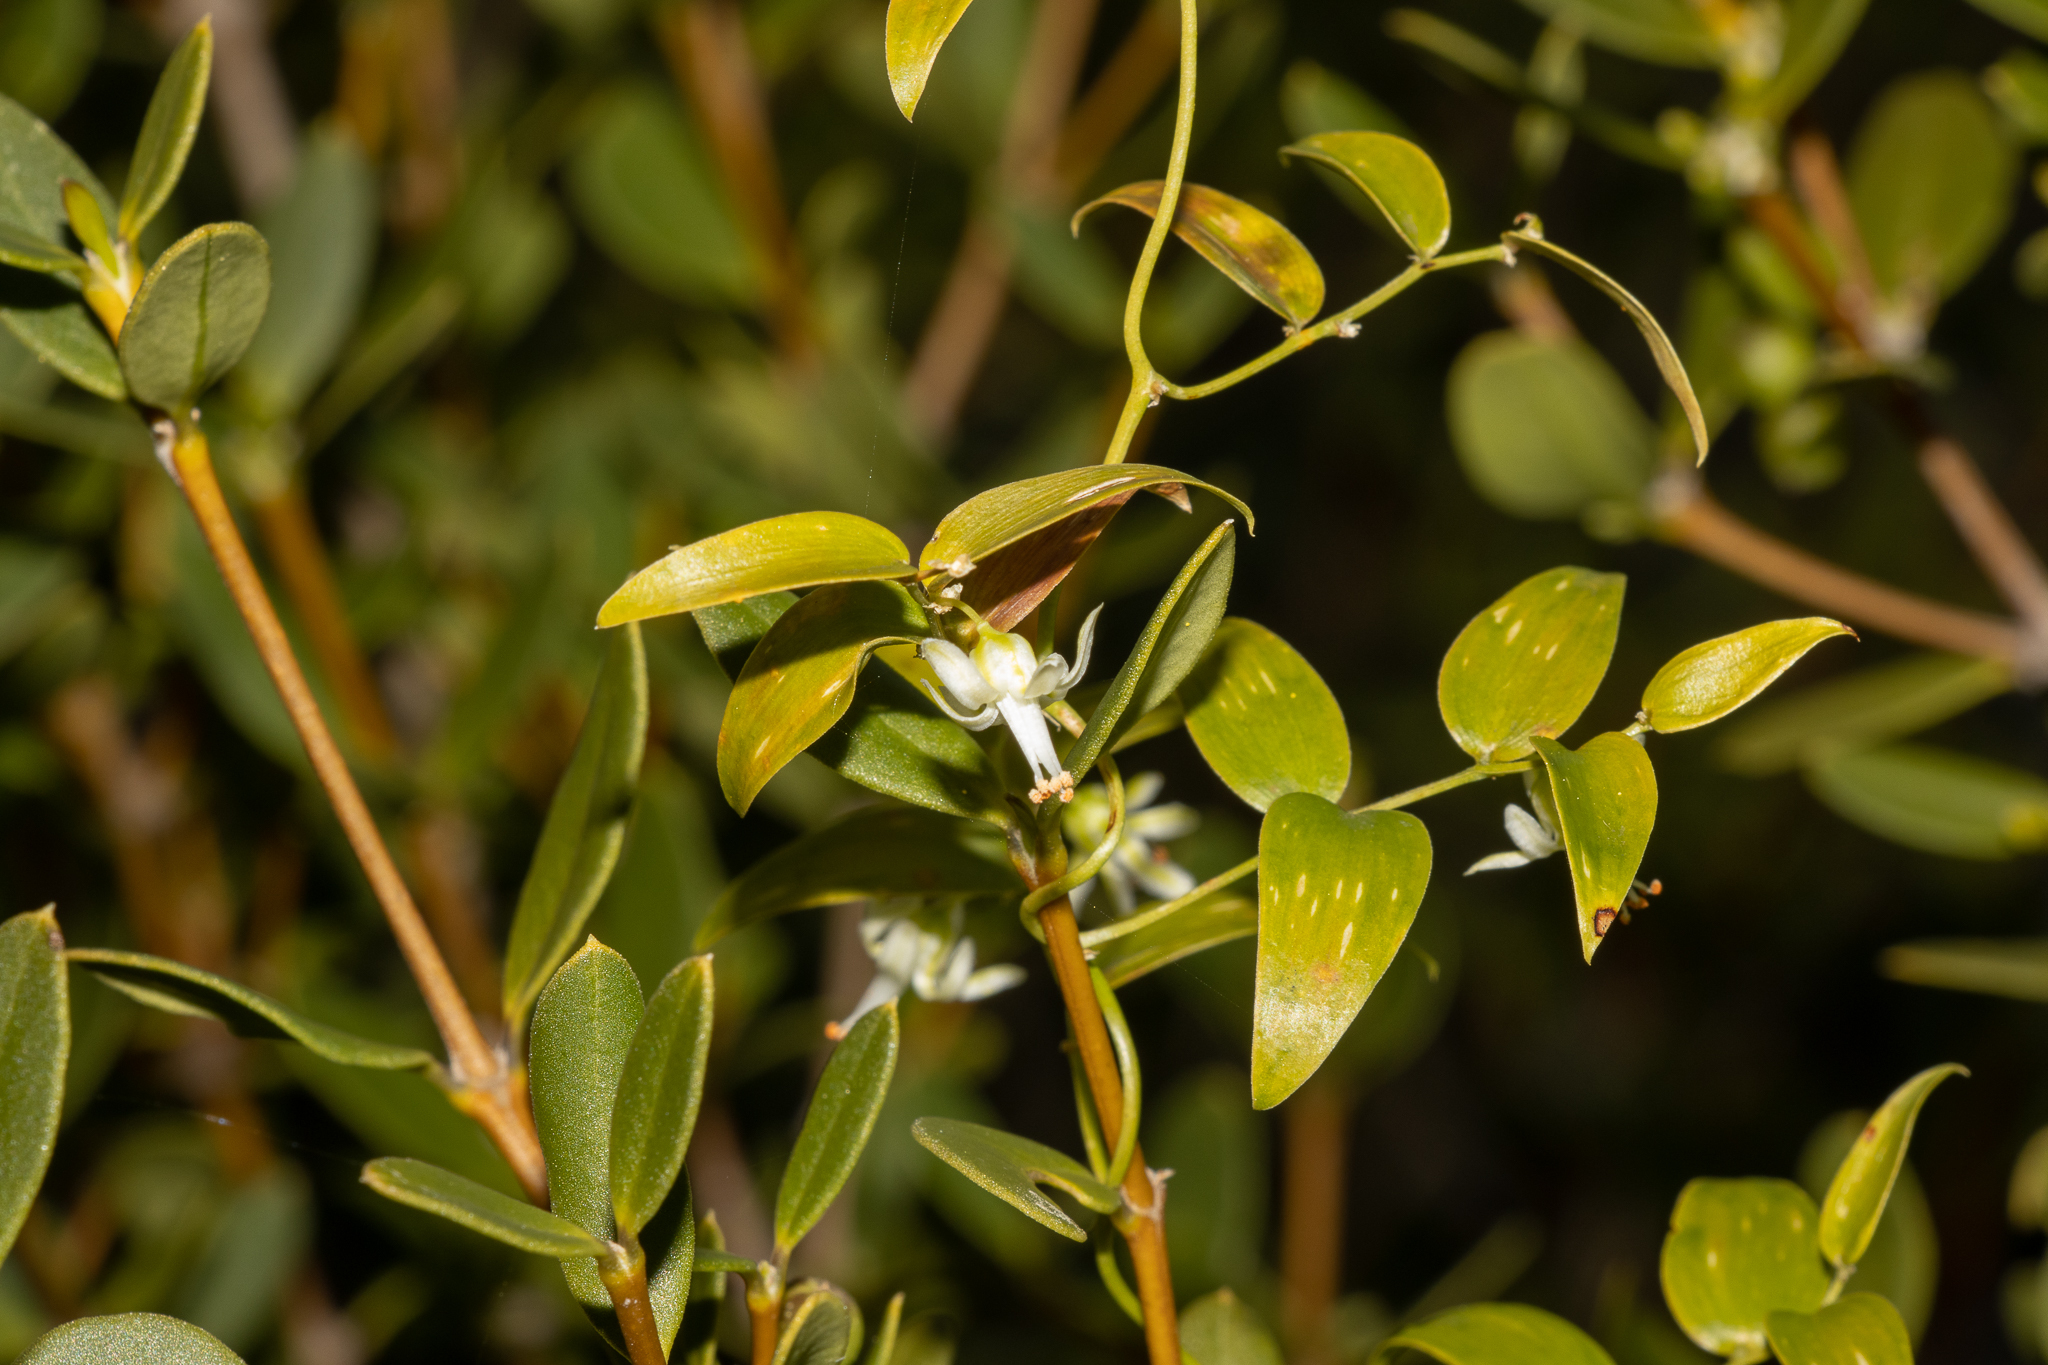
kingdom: Plantae
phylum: Tracheophyta
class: Liliopsida
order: Asparagales
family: Asparagaceae
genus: Asparagus
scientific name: Asparagus asparagoides
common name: African asparagus fern
